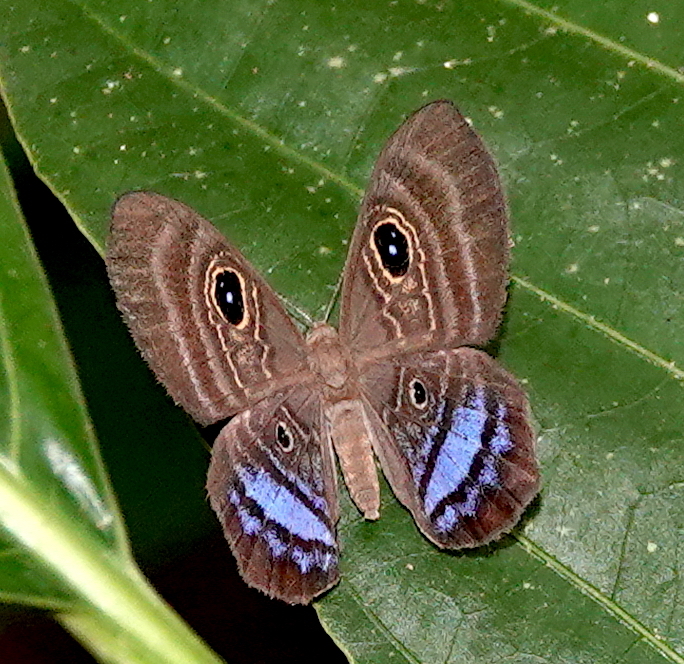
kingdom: Animalia
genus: Mesosemia
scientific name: Mesosemia
